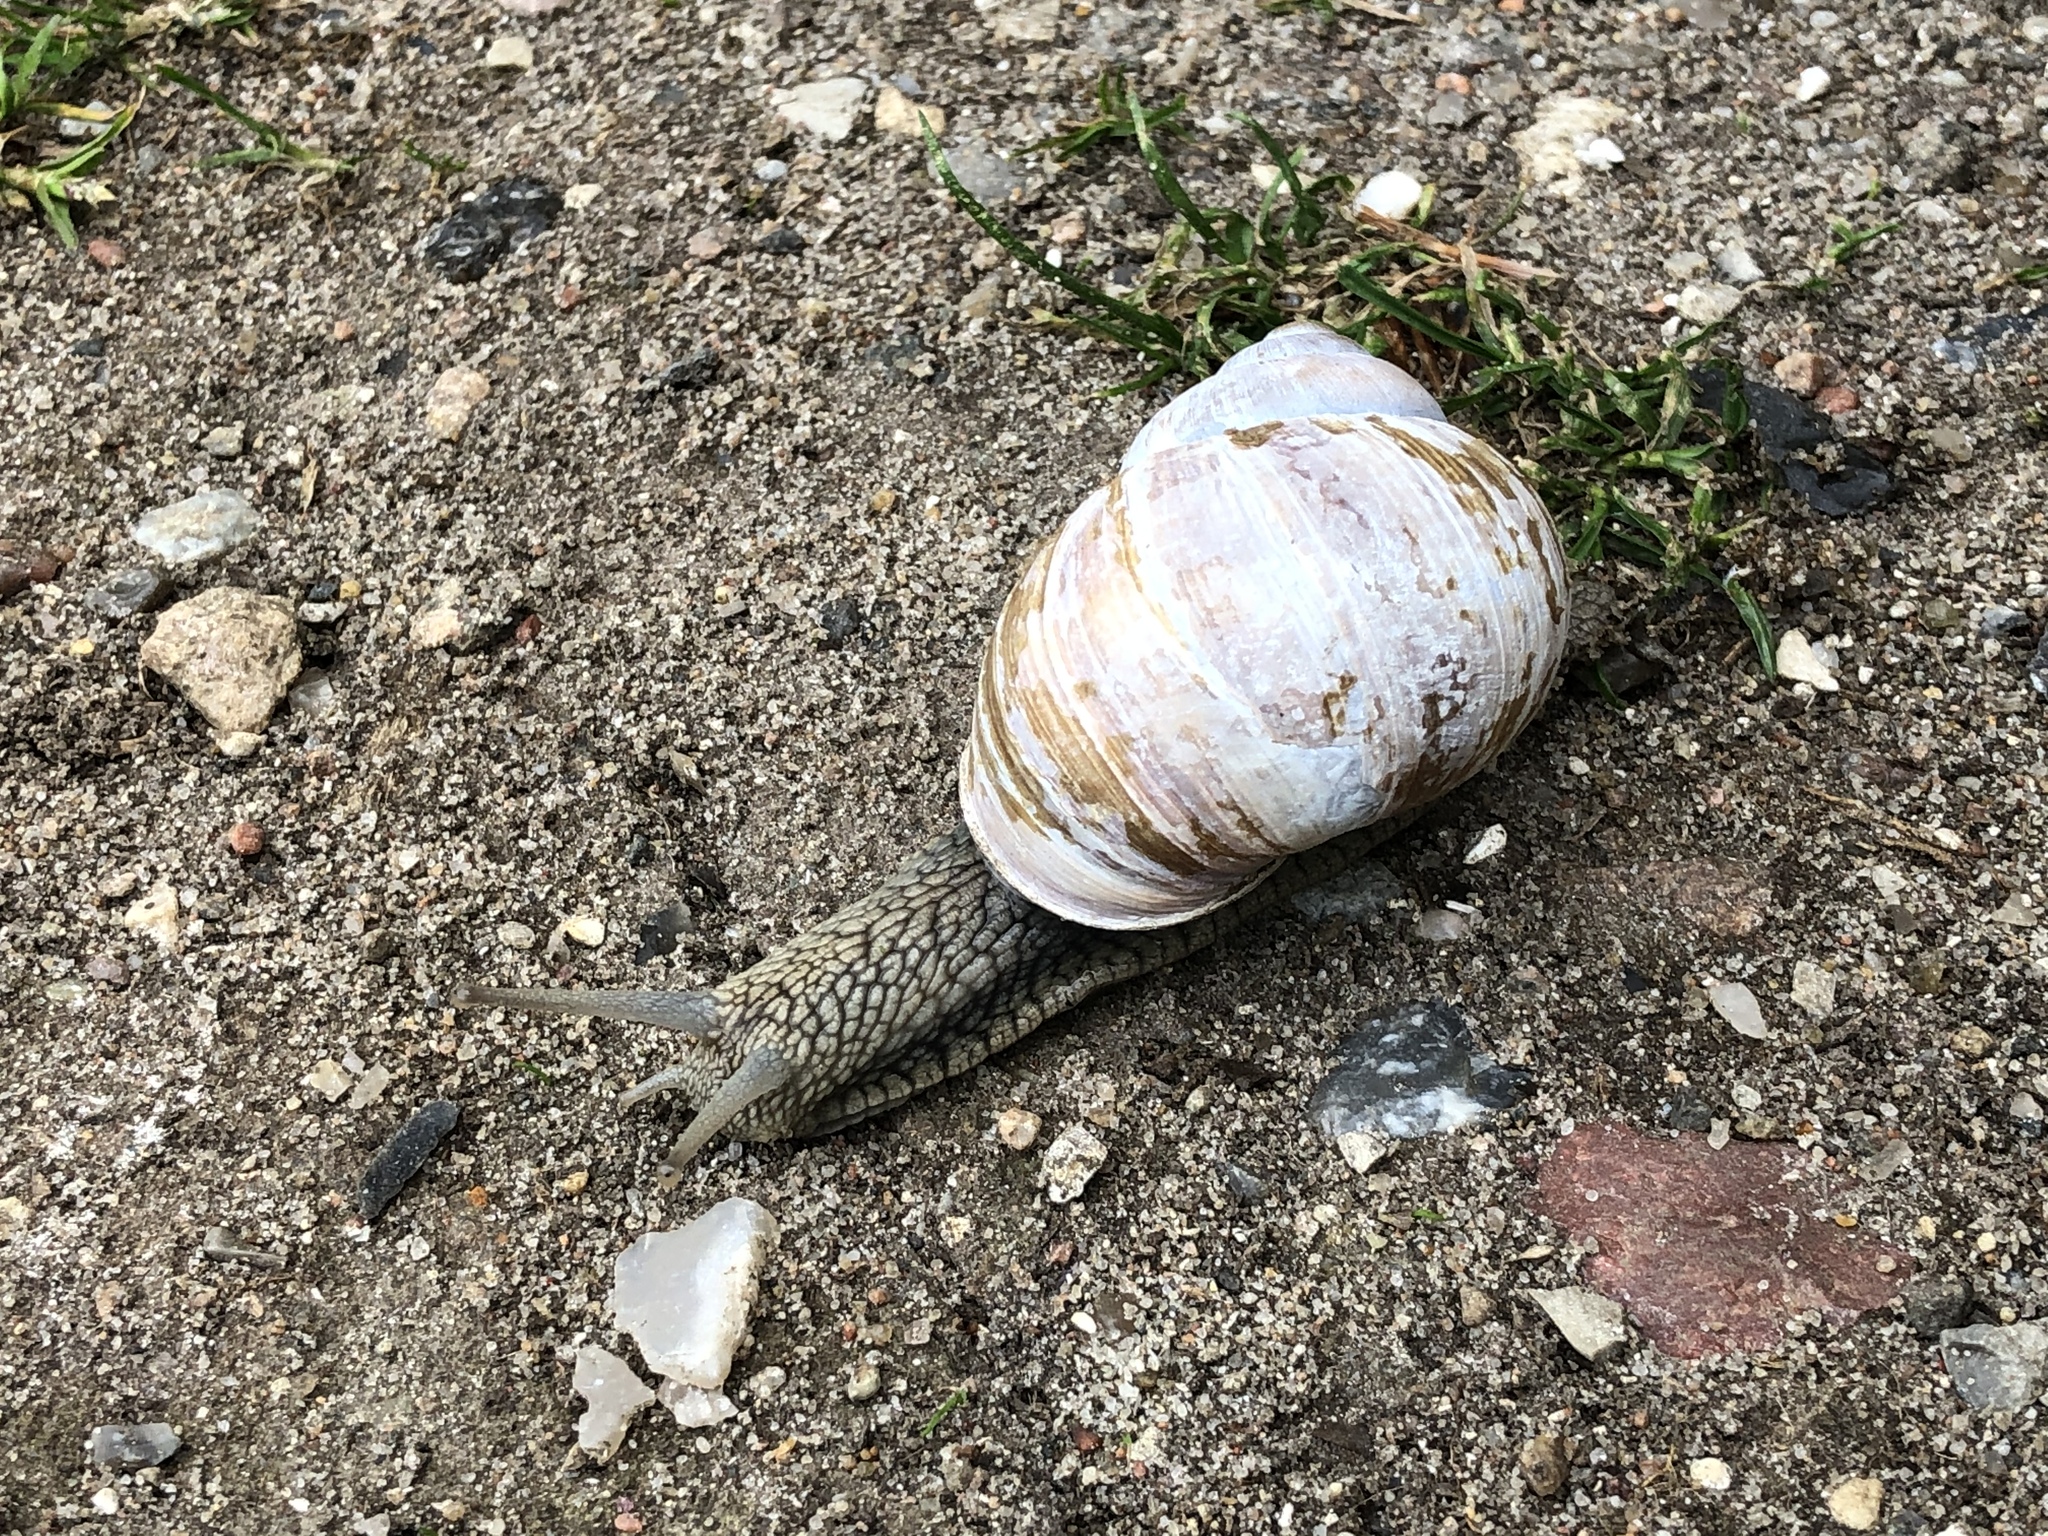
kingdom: Animalia
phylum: Mollusca
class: Gastropoda
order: Stylommatophora
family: Helicidae
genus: Helix
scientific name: Helix pomatia
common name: Roman snail
